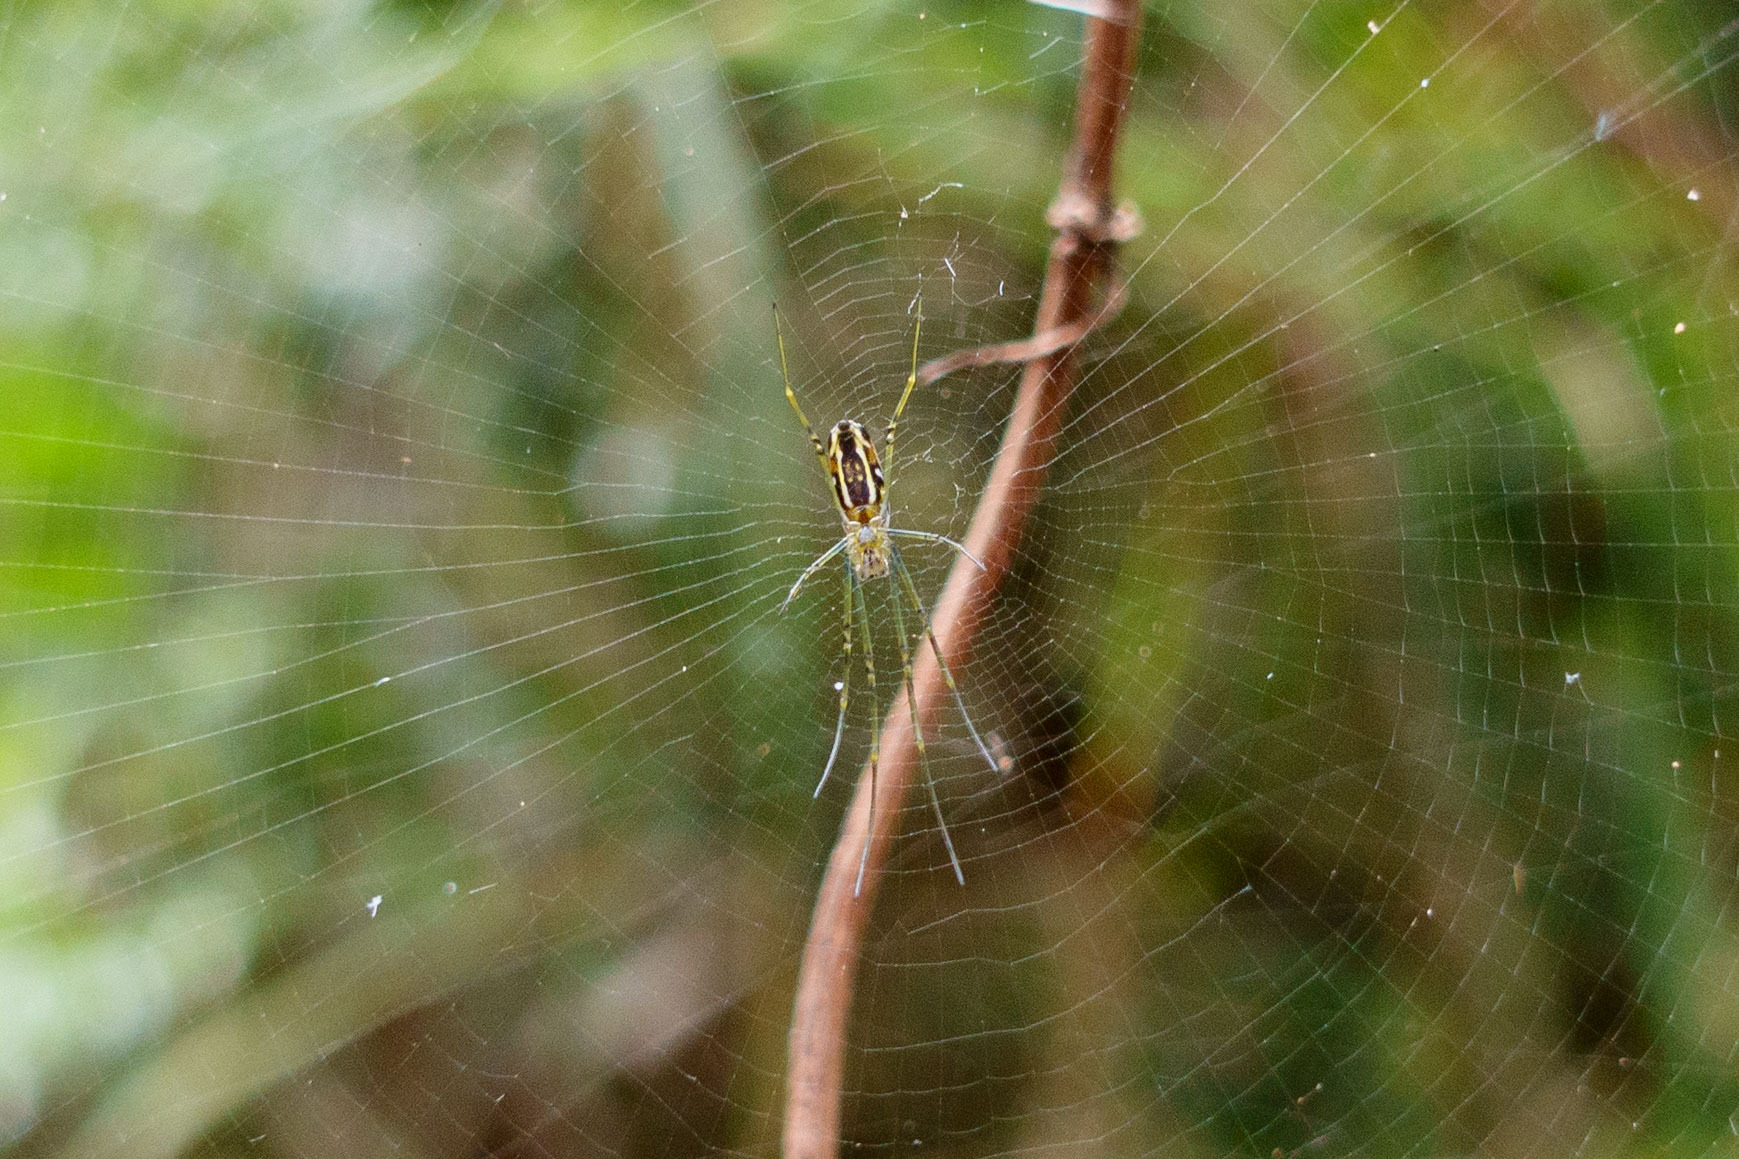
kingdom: Animalia
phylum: Arthropoda
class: Arachnida
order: Araneae
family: Araneidae
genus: Nephila
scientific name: Nephila pilipes
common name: Giant golden orb weaver
